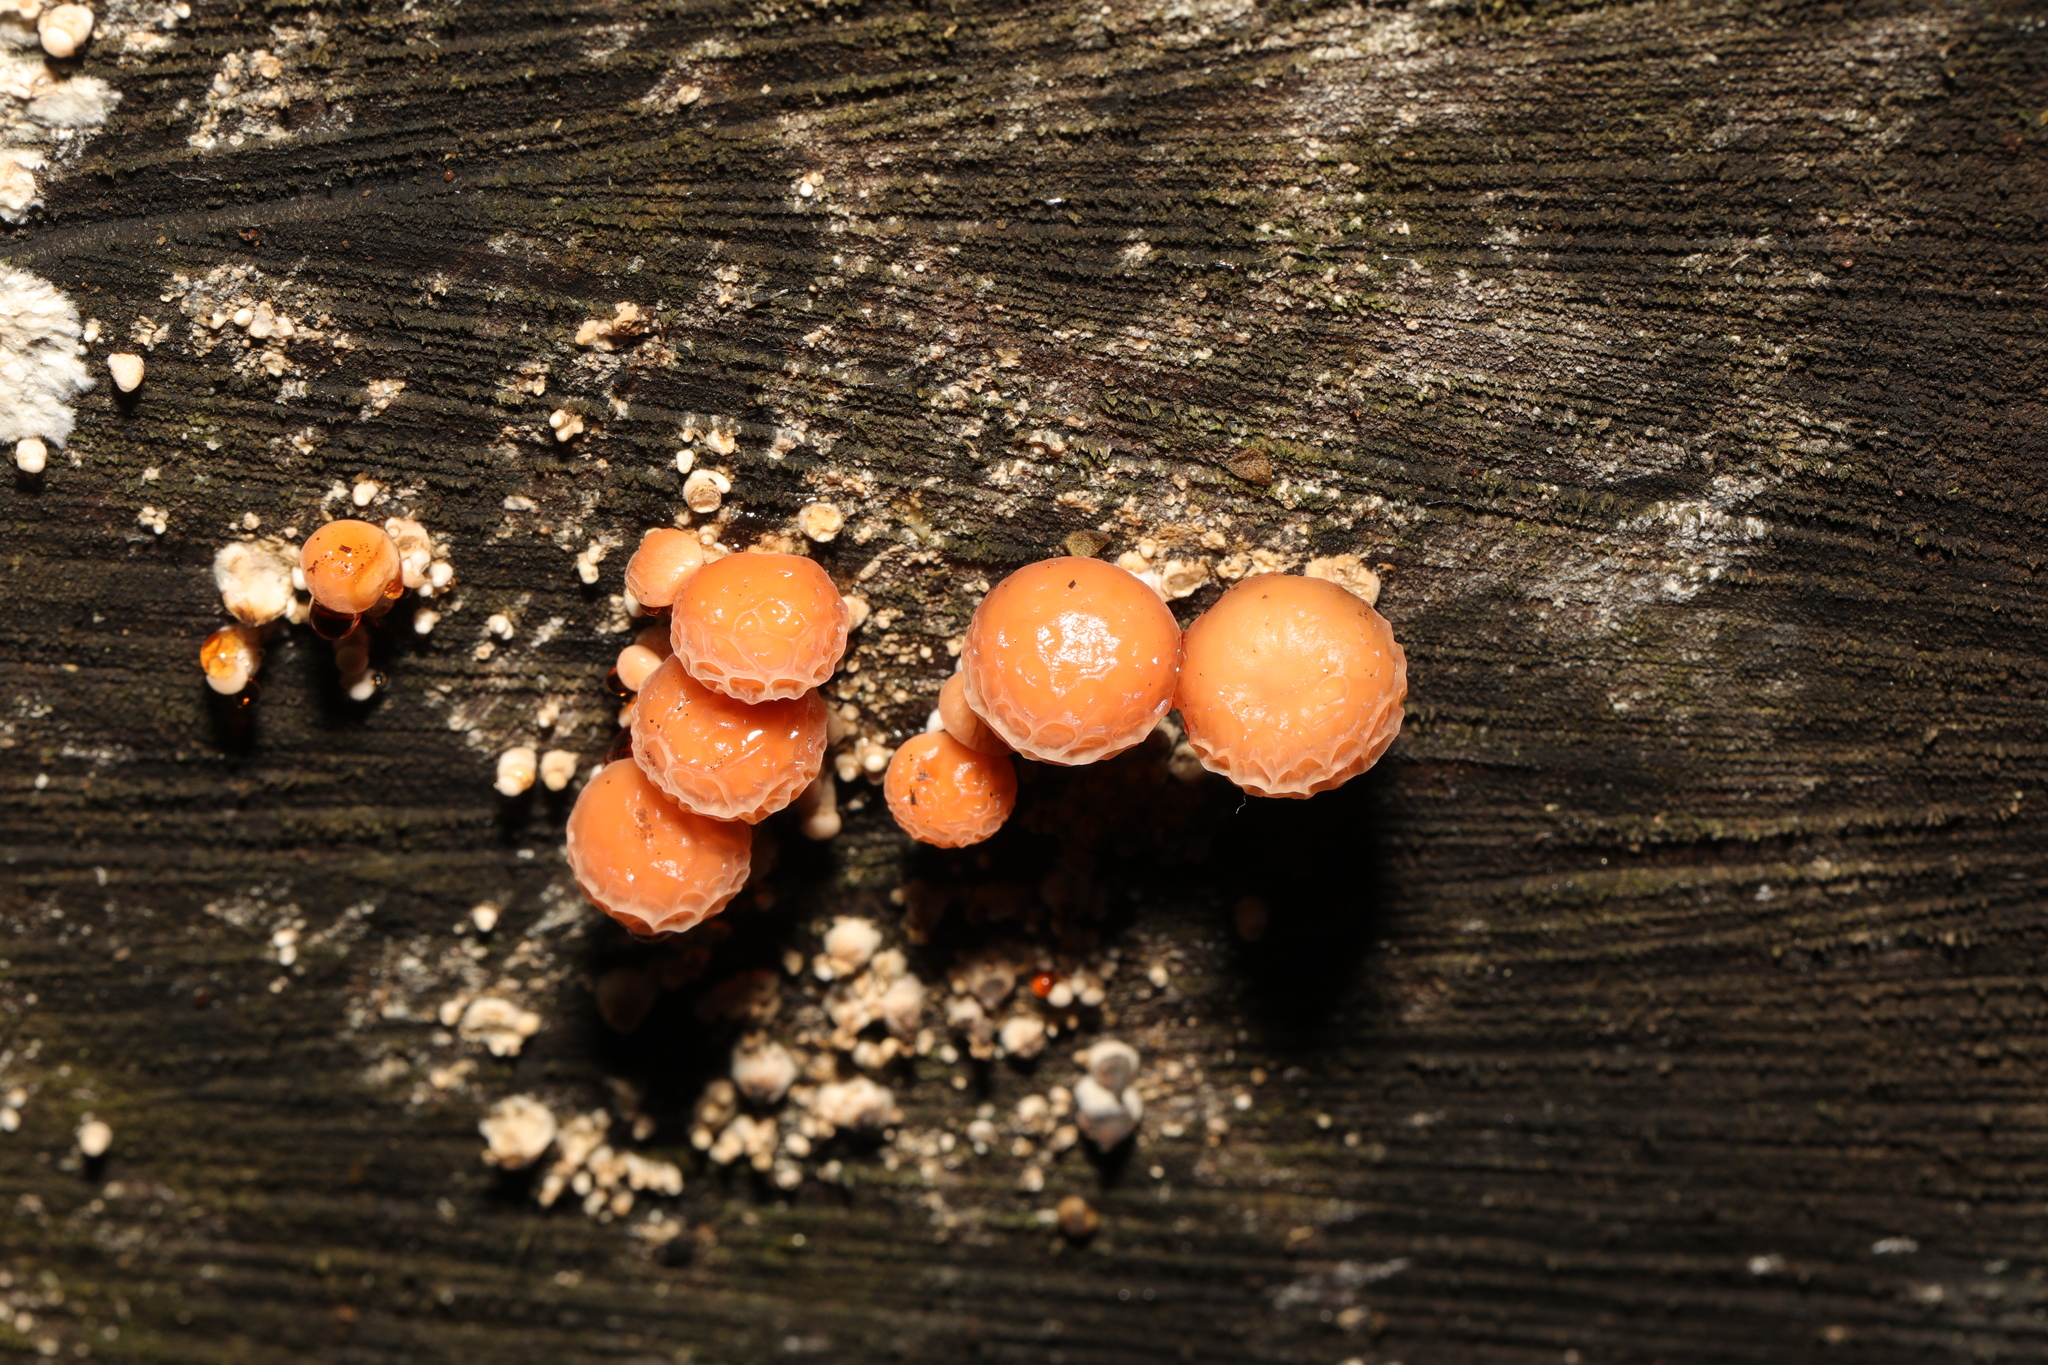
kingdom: Fungi
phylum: Basidiomycota
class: Agaricomycetes
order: Agaricales
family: Physalacriaceae
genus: Rhodotus
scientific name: Rhodotus palmatus
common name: Wrinkled peach
